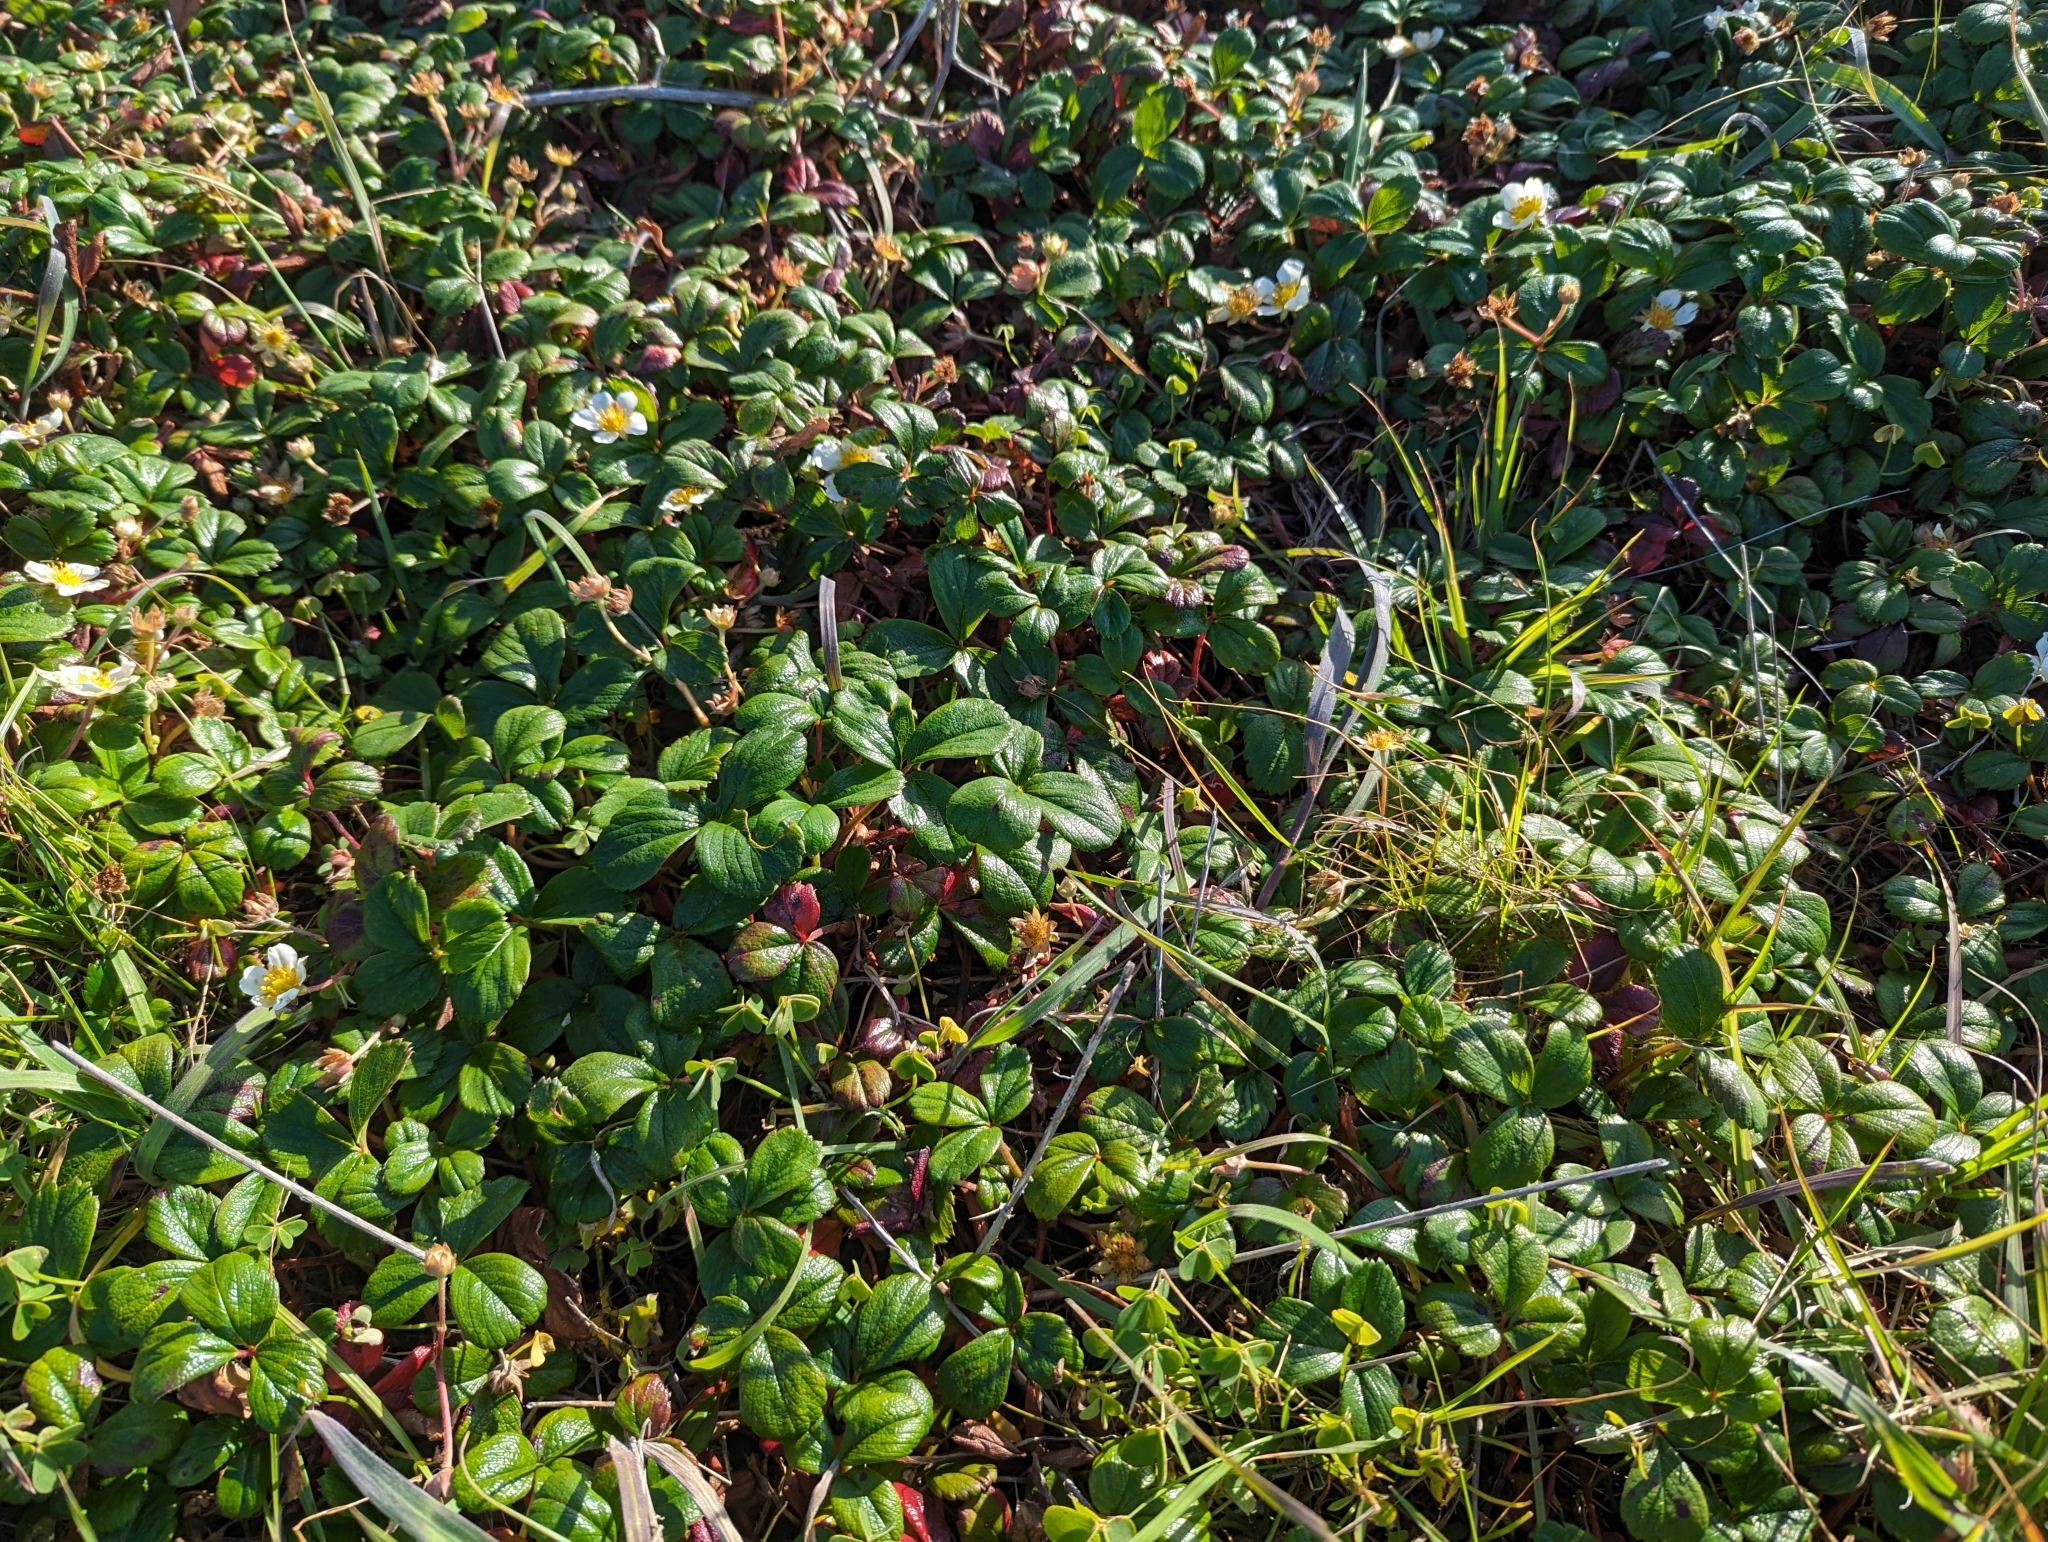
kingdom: Plantae
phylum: Tracheophyta
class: Magnoliopsida
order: Rosales
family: Rosaceae
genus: Fragaria
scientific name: Fragaria chiloensis
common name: Beach strawberry
